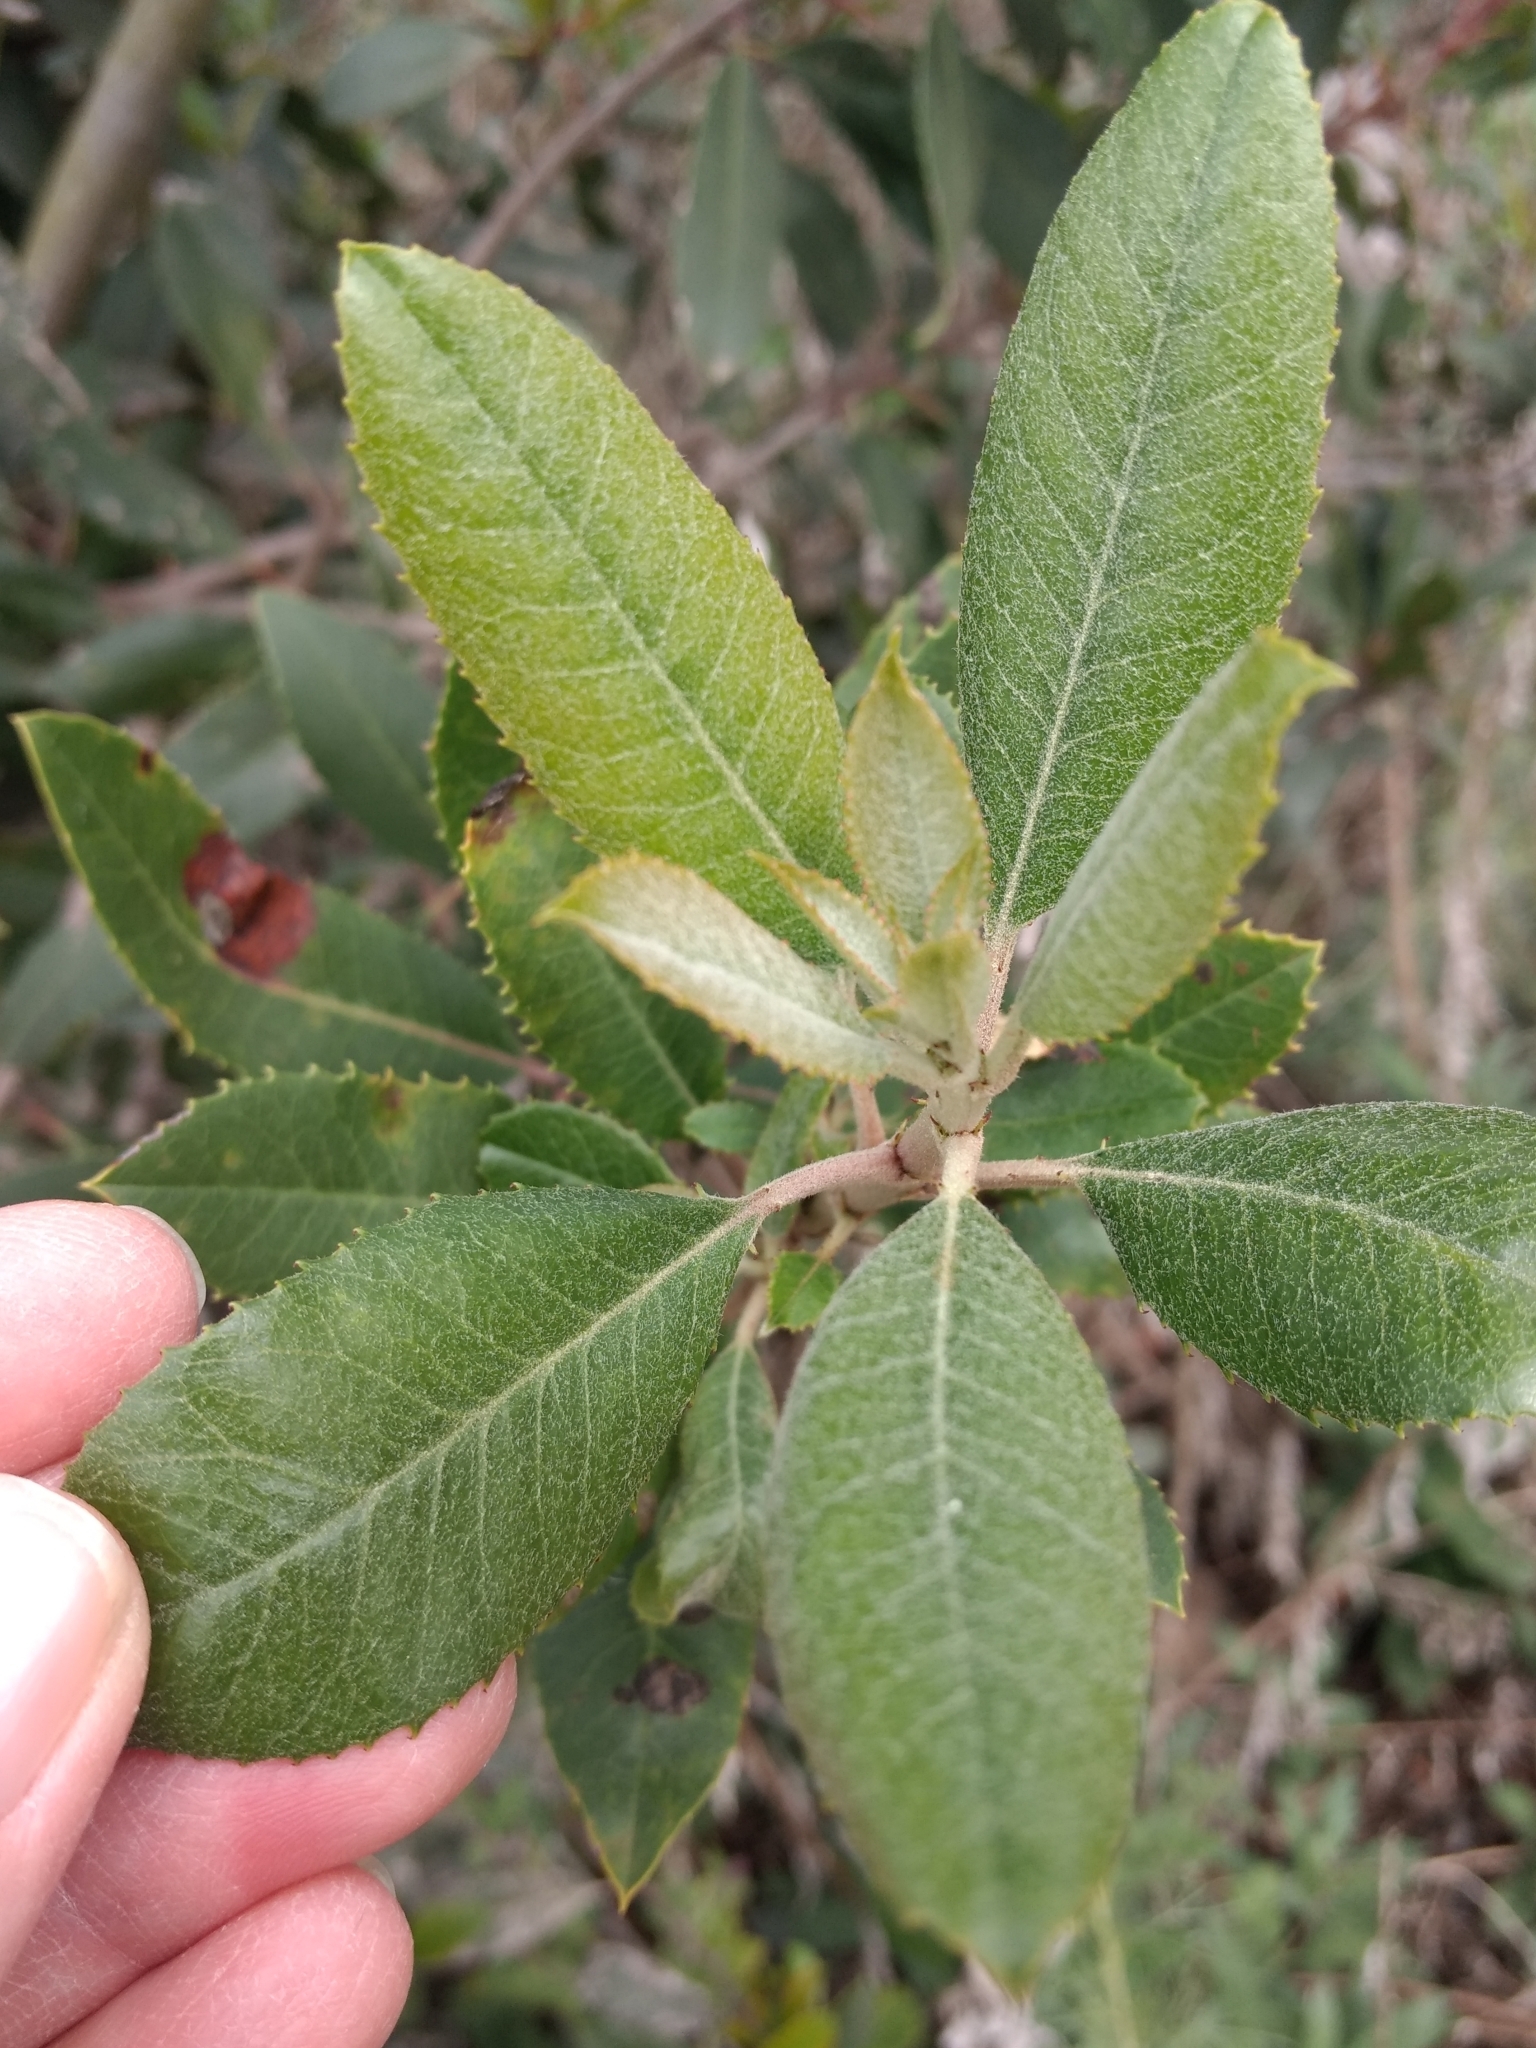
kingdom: Plantae
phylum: Tracheophyta
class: Magnoliopsida
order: Rosales
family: Rosaceae
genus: Heteromeles
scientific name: Heteromeles arbutifolia
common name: California-holly
